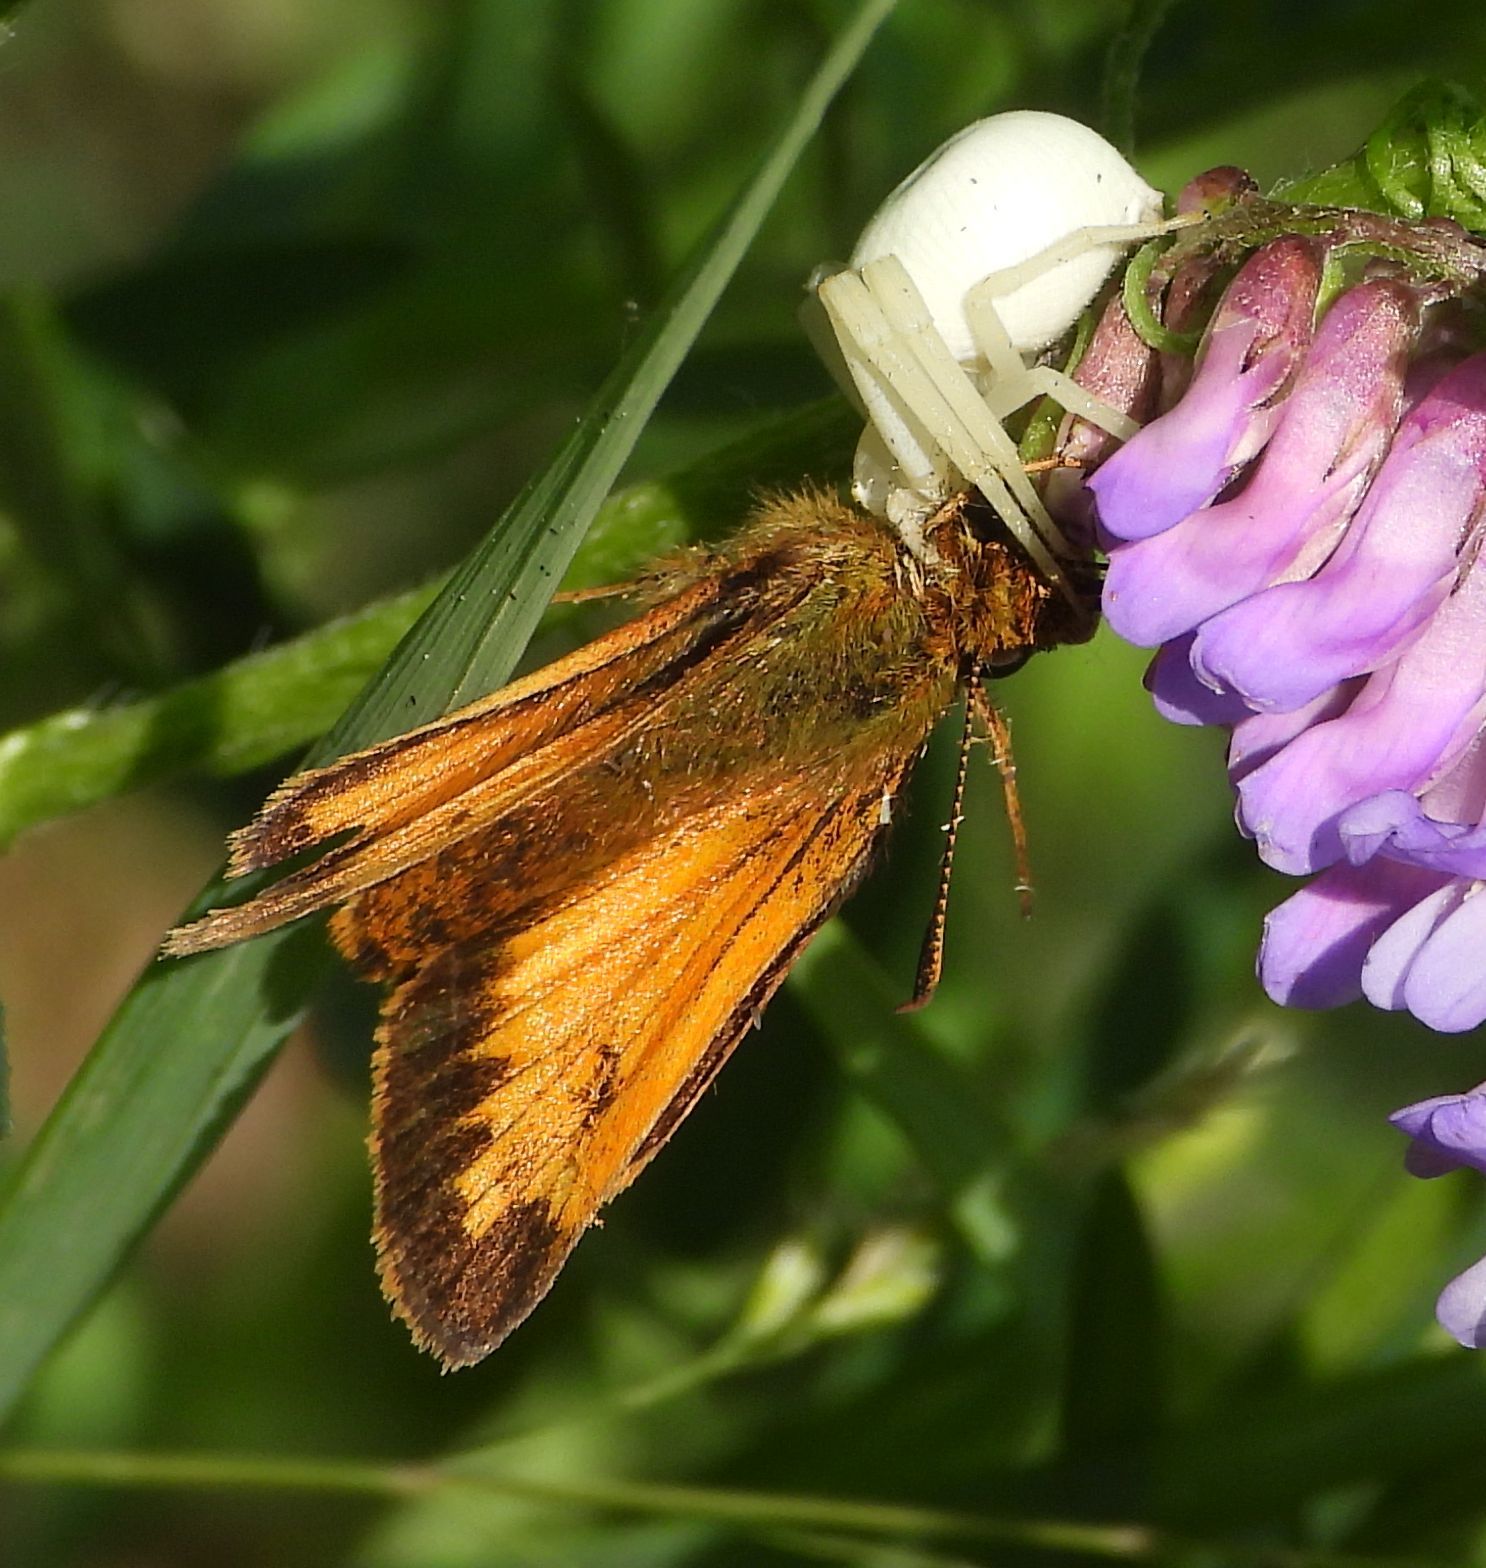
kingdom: Animalia
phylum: Arthropoda
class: Arachnida
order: Araneae
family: Thomisidae
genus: Misumena
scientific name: Misumena vatia
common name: Goldenrod crab spider
